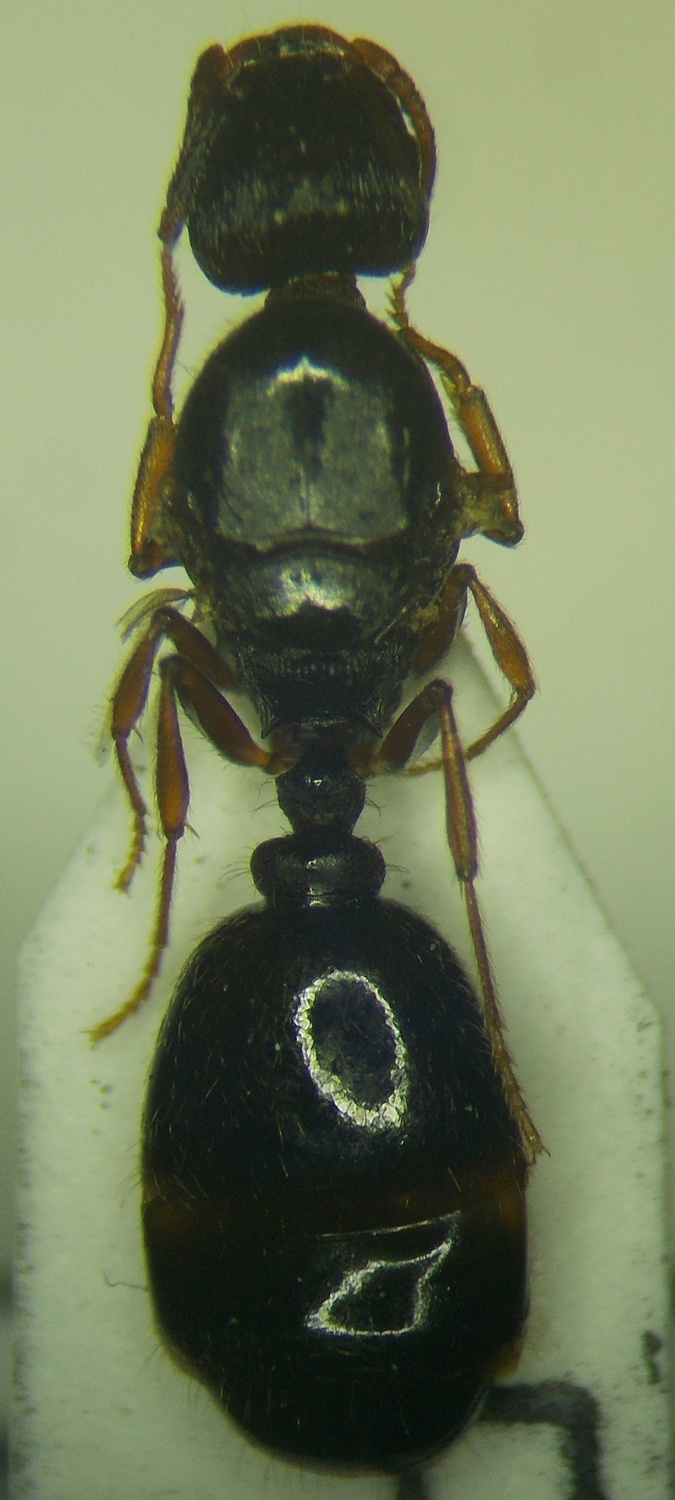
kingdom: Animalia
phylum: Arthropoda
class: Insecta
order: Hymenoptera
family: Formicidae
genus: Tetramorium
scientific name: Tetramorium caespitum
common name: Pavement ant
